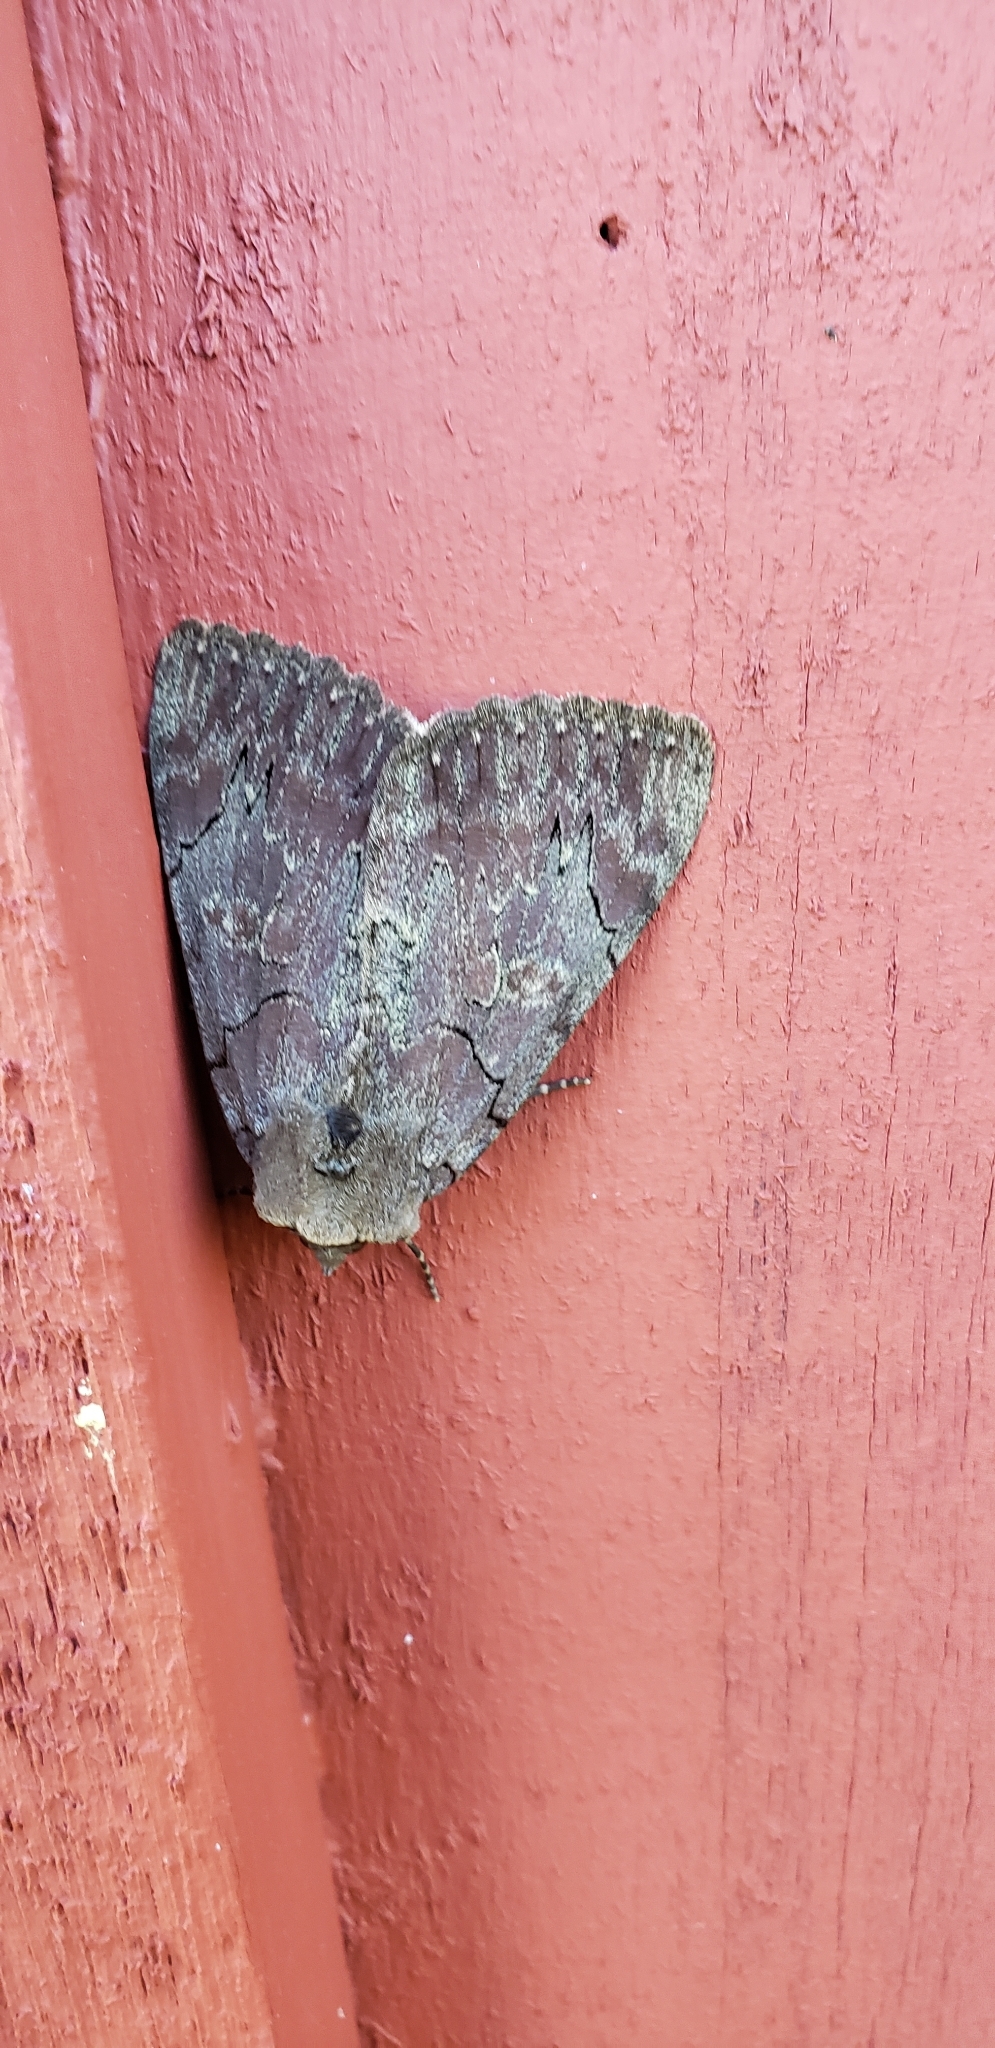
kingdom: Animalia
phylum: Arthropoda
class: Insecta
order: Lepidoptera
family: Erebidae
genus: Catocala
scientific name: Catocala cara
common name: Darling underwing
